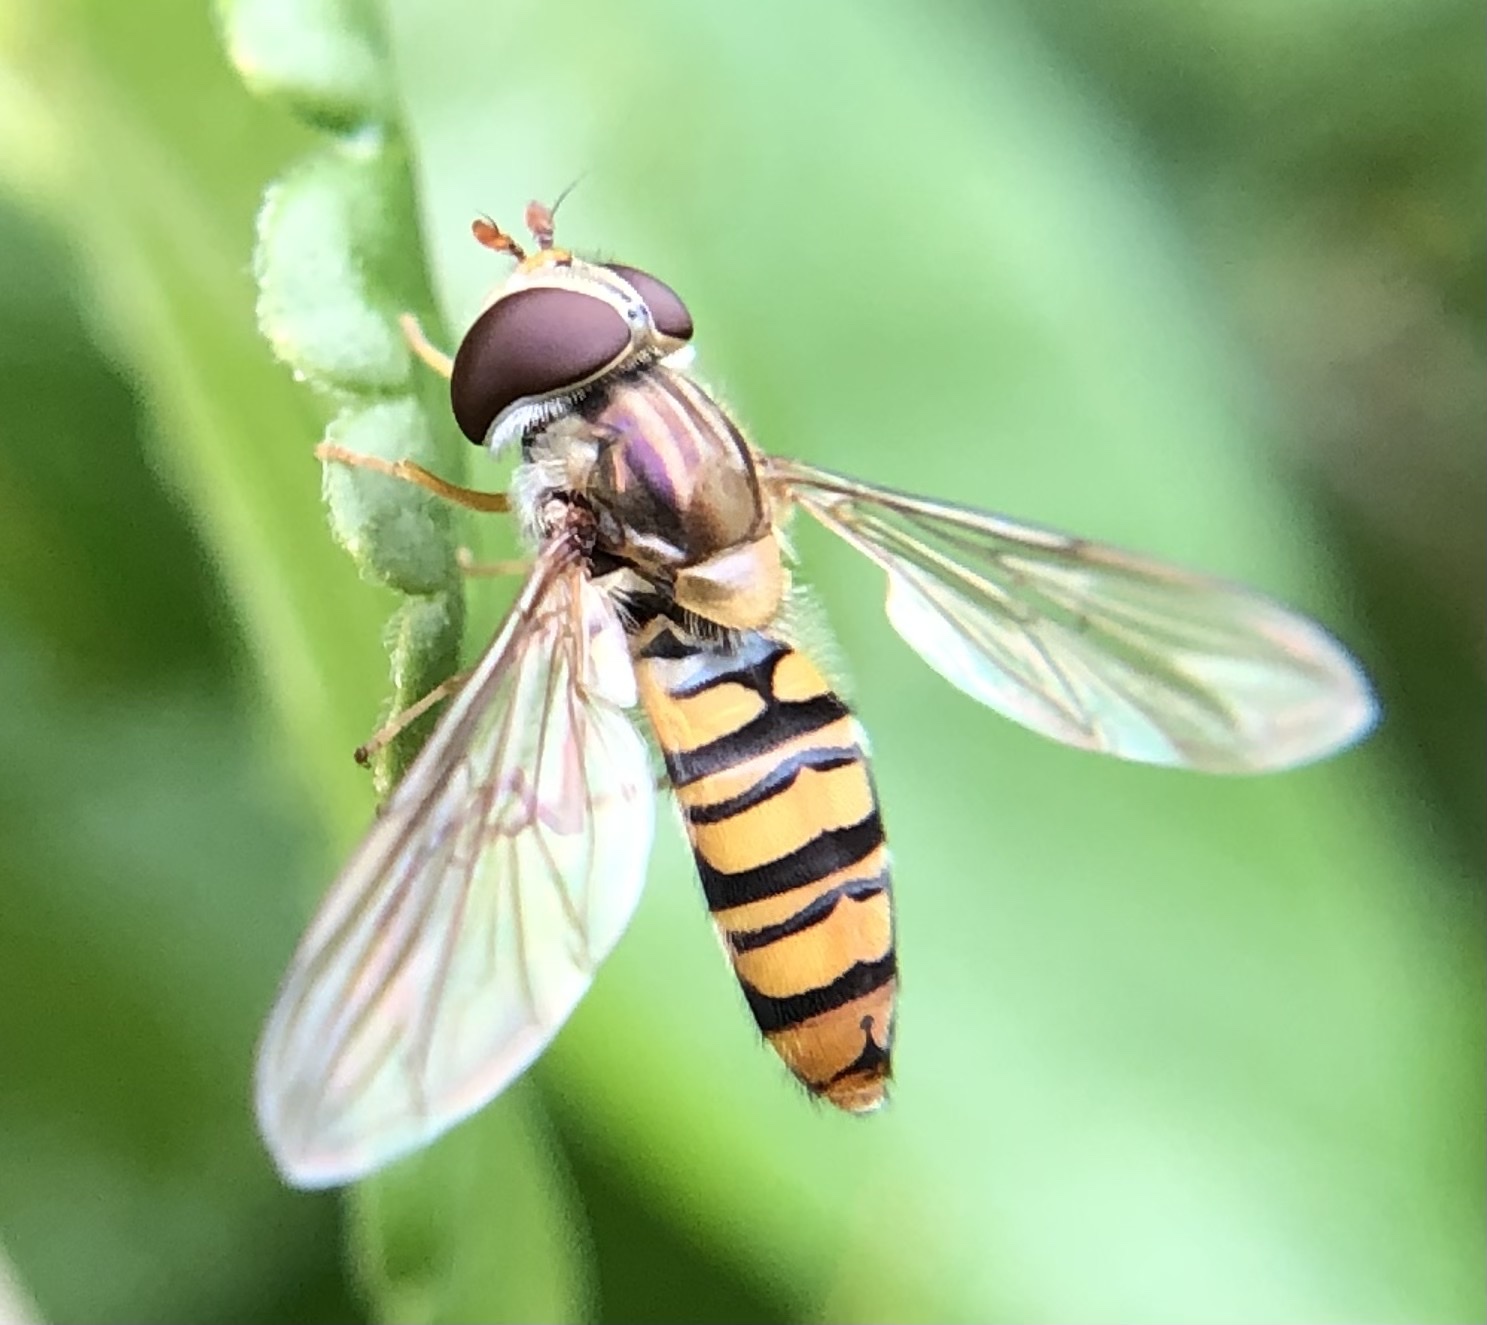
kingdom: Animalia
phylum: Arthropoda
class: Insecta
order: Diptera
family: Syrphidae
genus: Episyrphus
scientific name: Episyrphus balteatus
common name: Marmalade hoverfly
